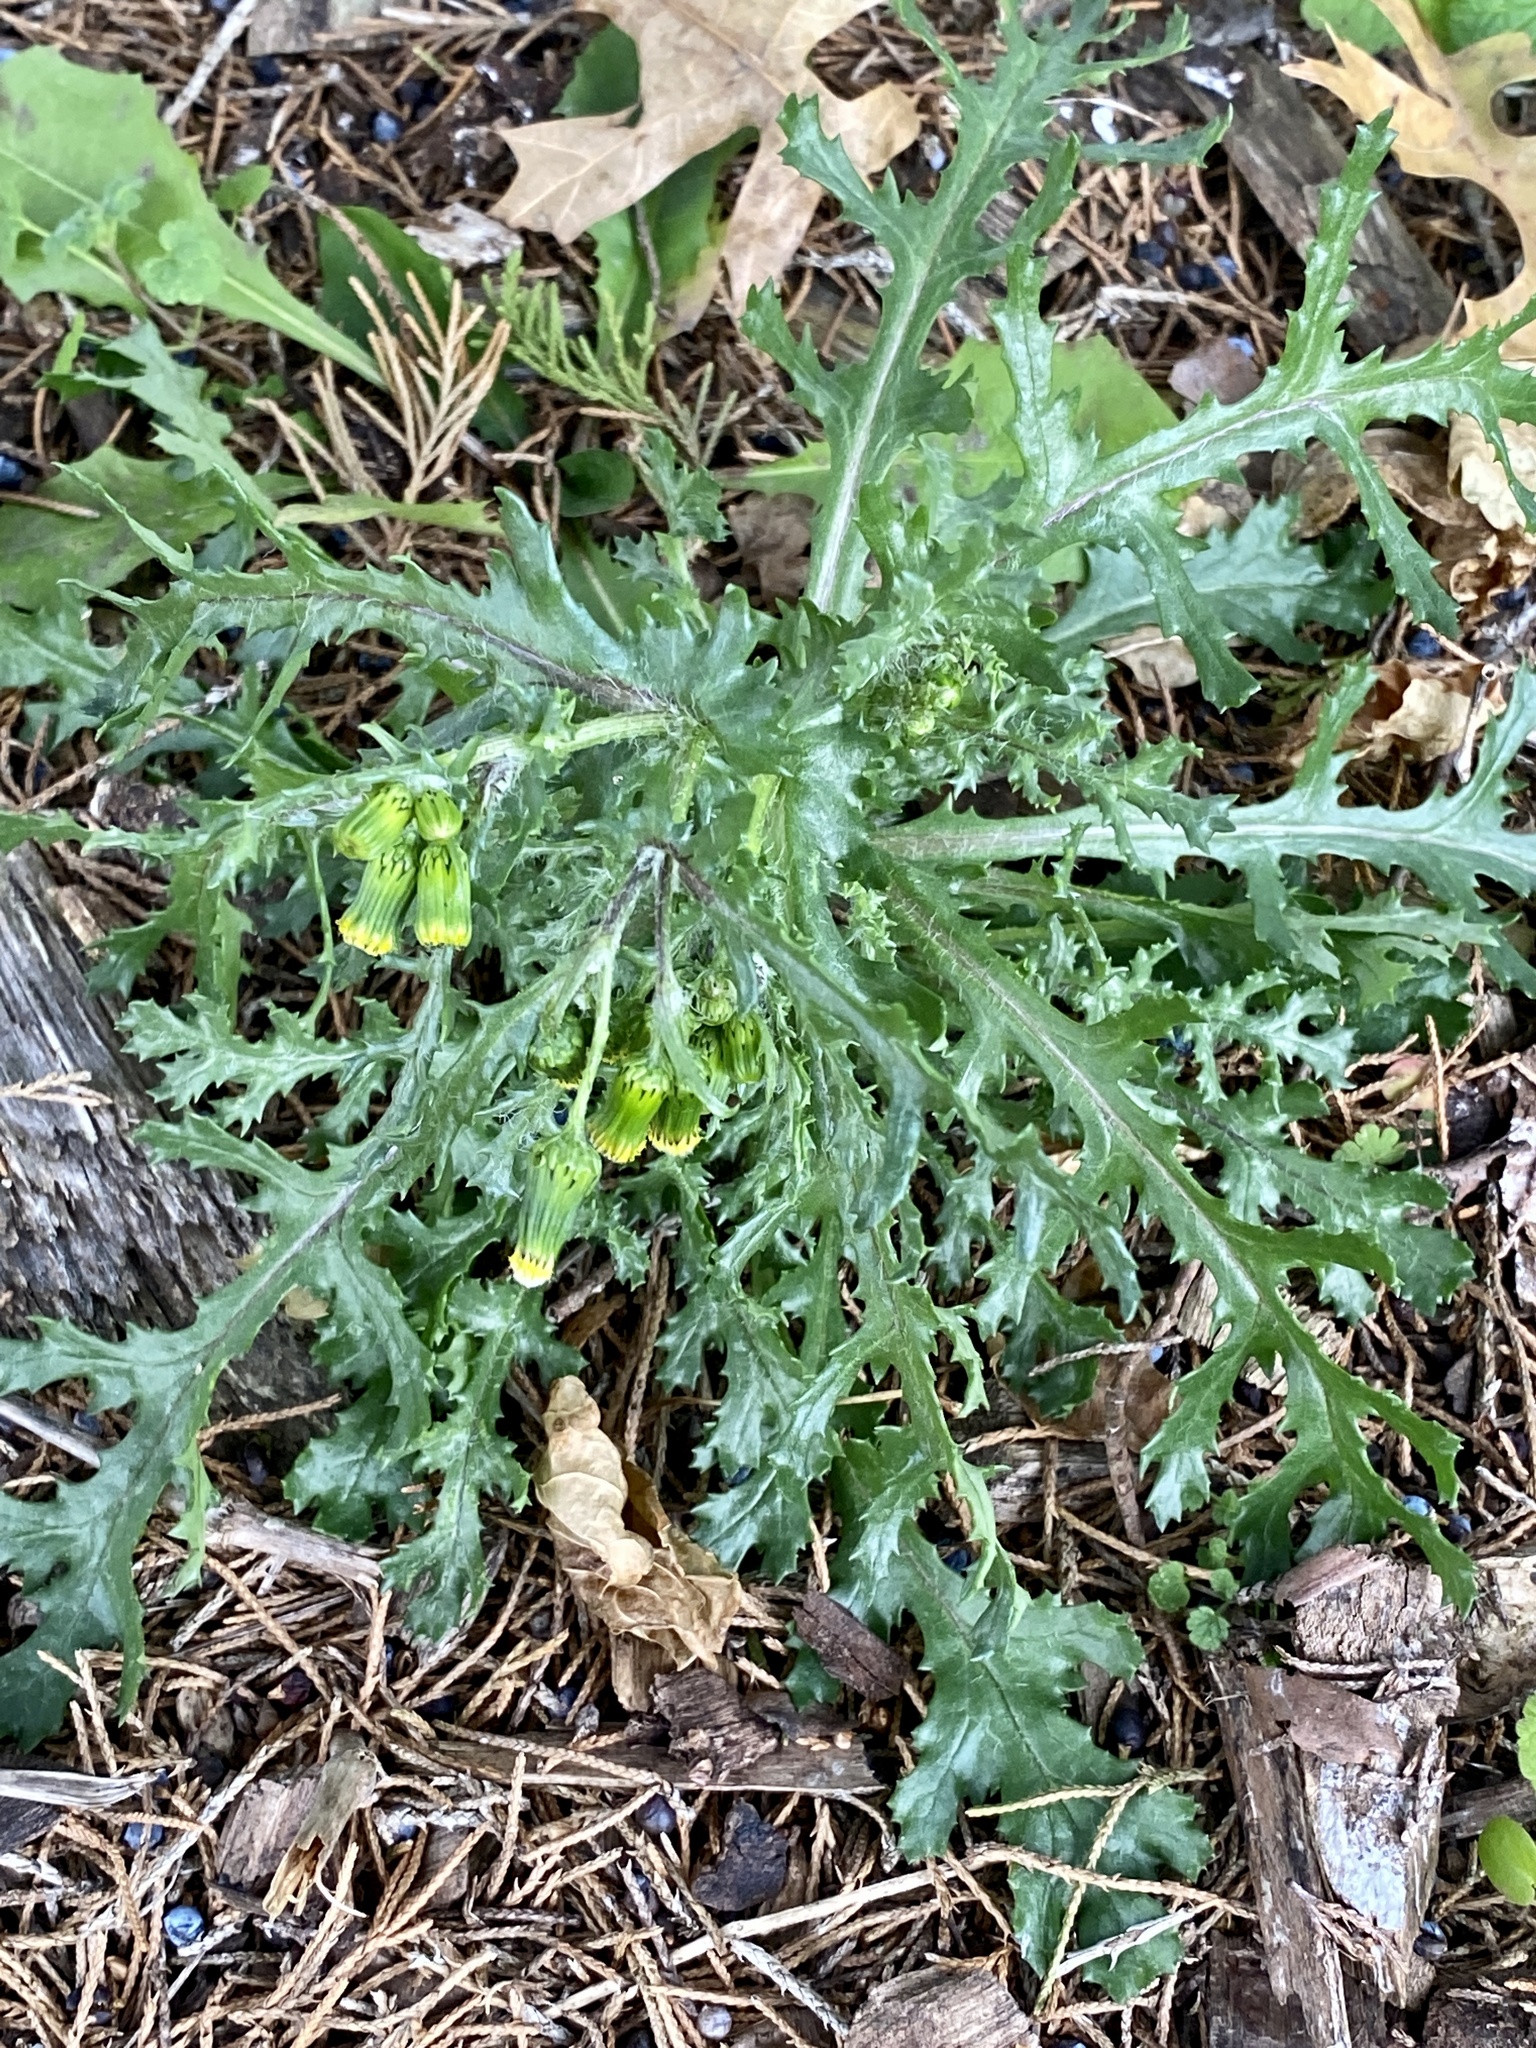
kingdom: Plantae
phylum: Tracheophyta
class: Magnoliopsida
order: Asterales
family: Asteraceae
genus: Senecio
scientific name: Senecio vulgaris
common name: Old-man-in-the-spring
